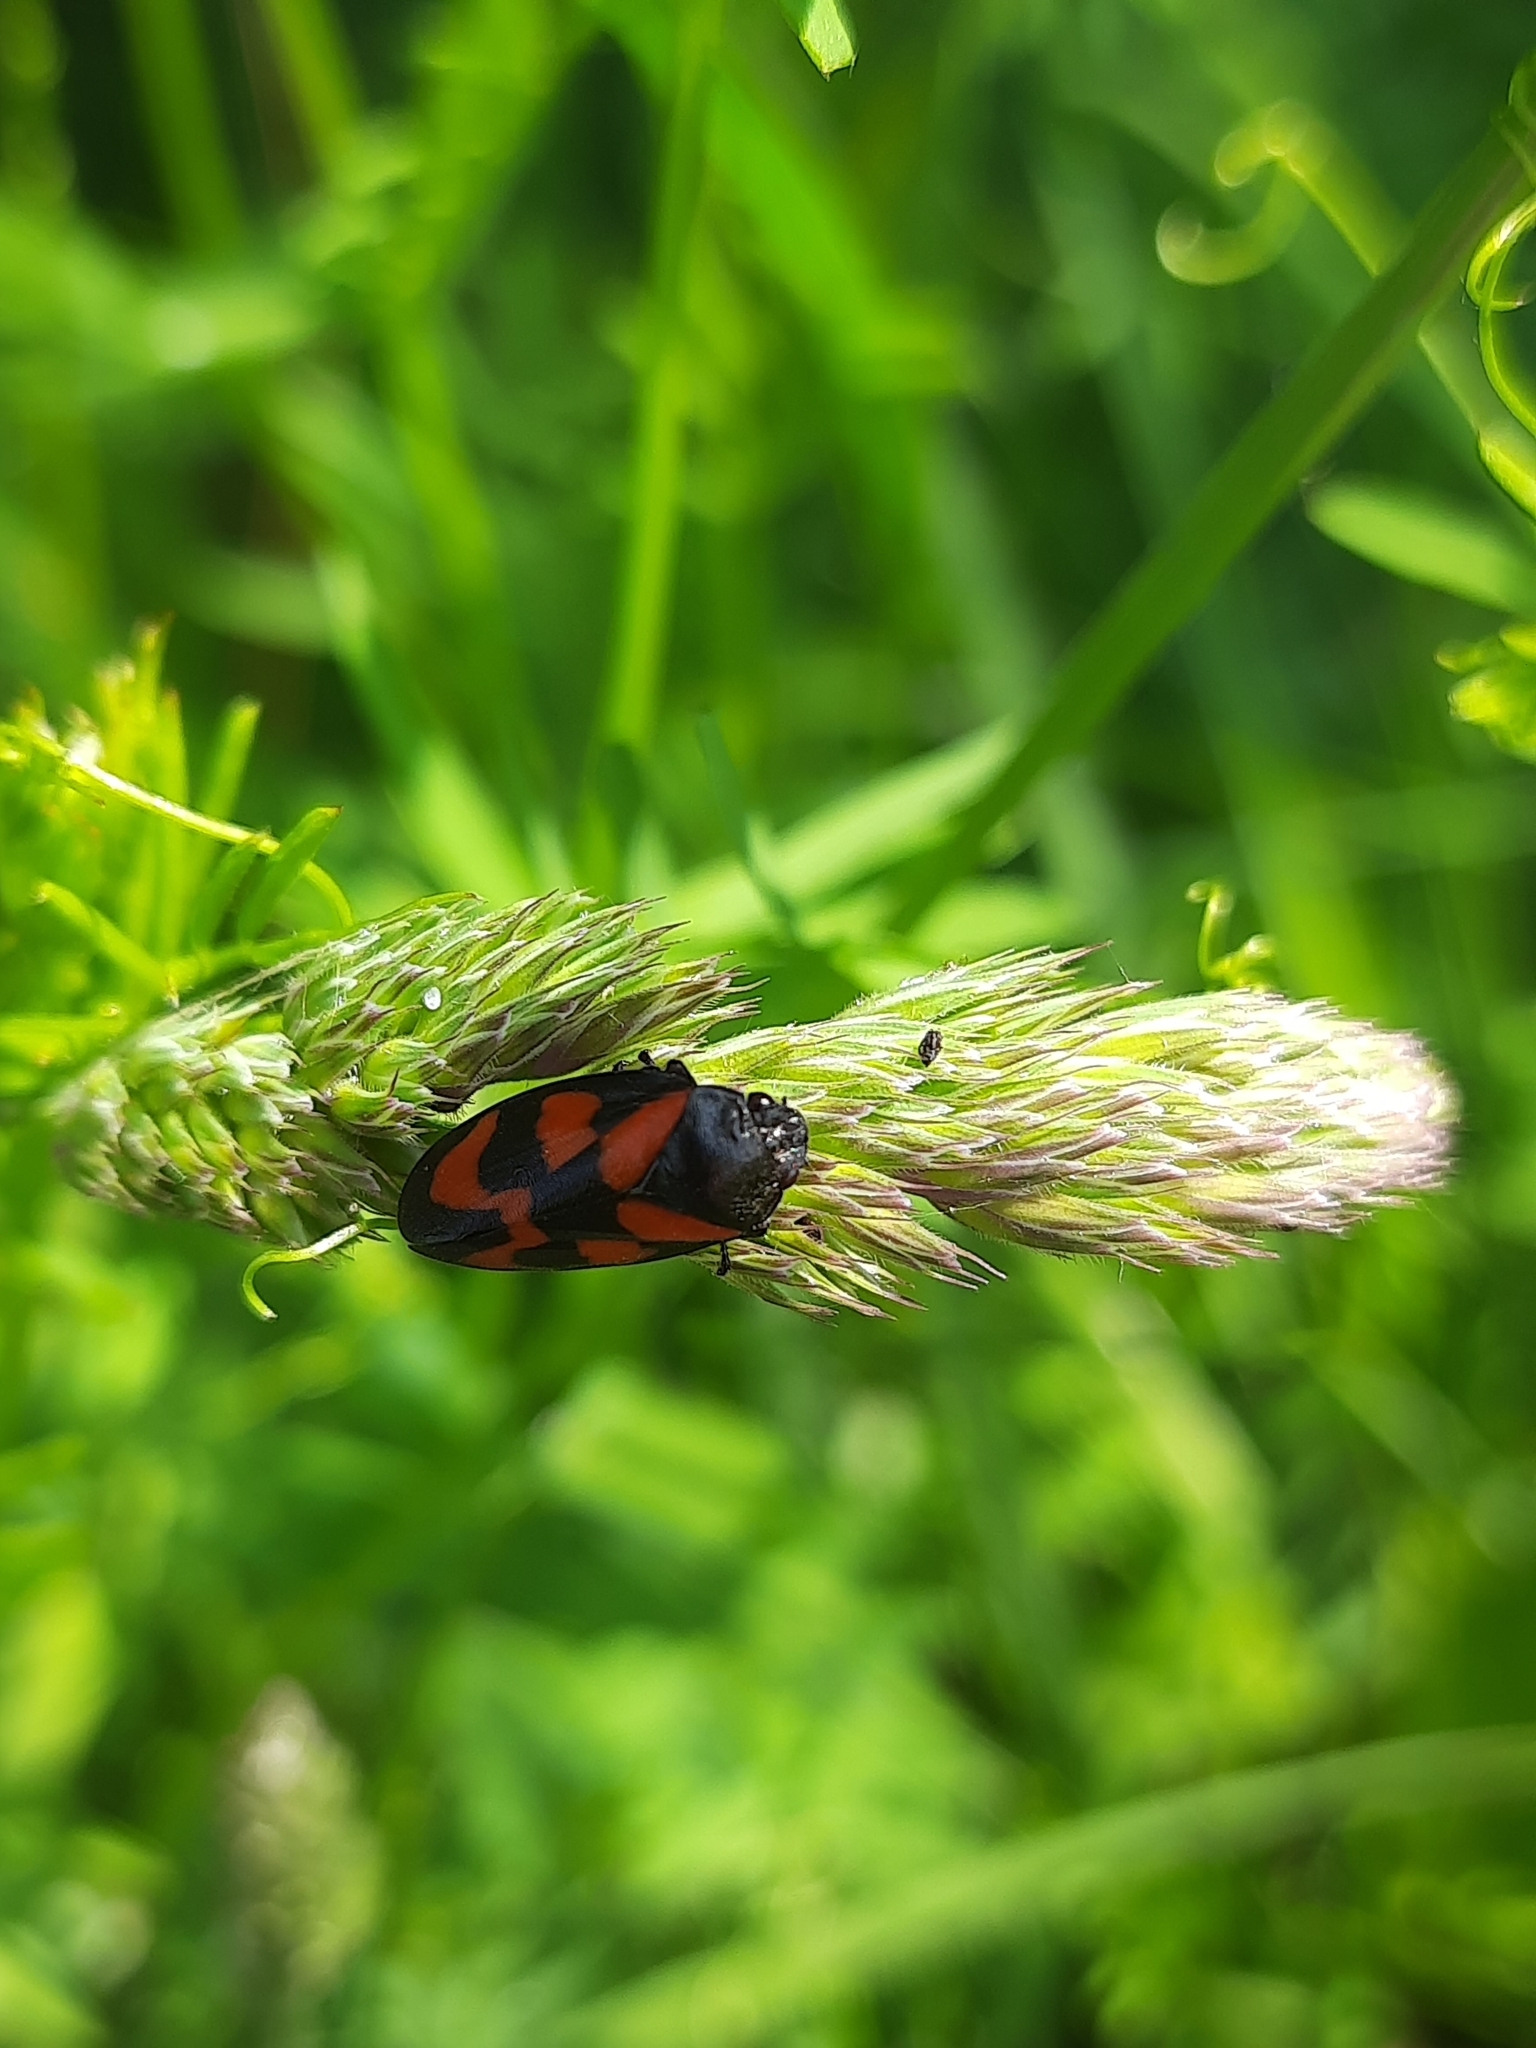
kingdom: Animalia
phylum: Arthropoda
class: Insecta
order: Hemiptera
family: Cercopidae
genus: Cercopis
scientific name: Cercopis vulnerata
